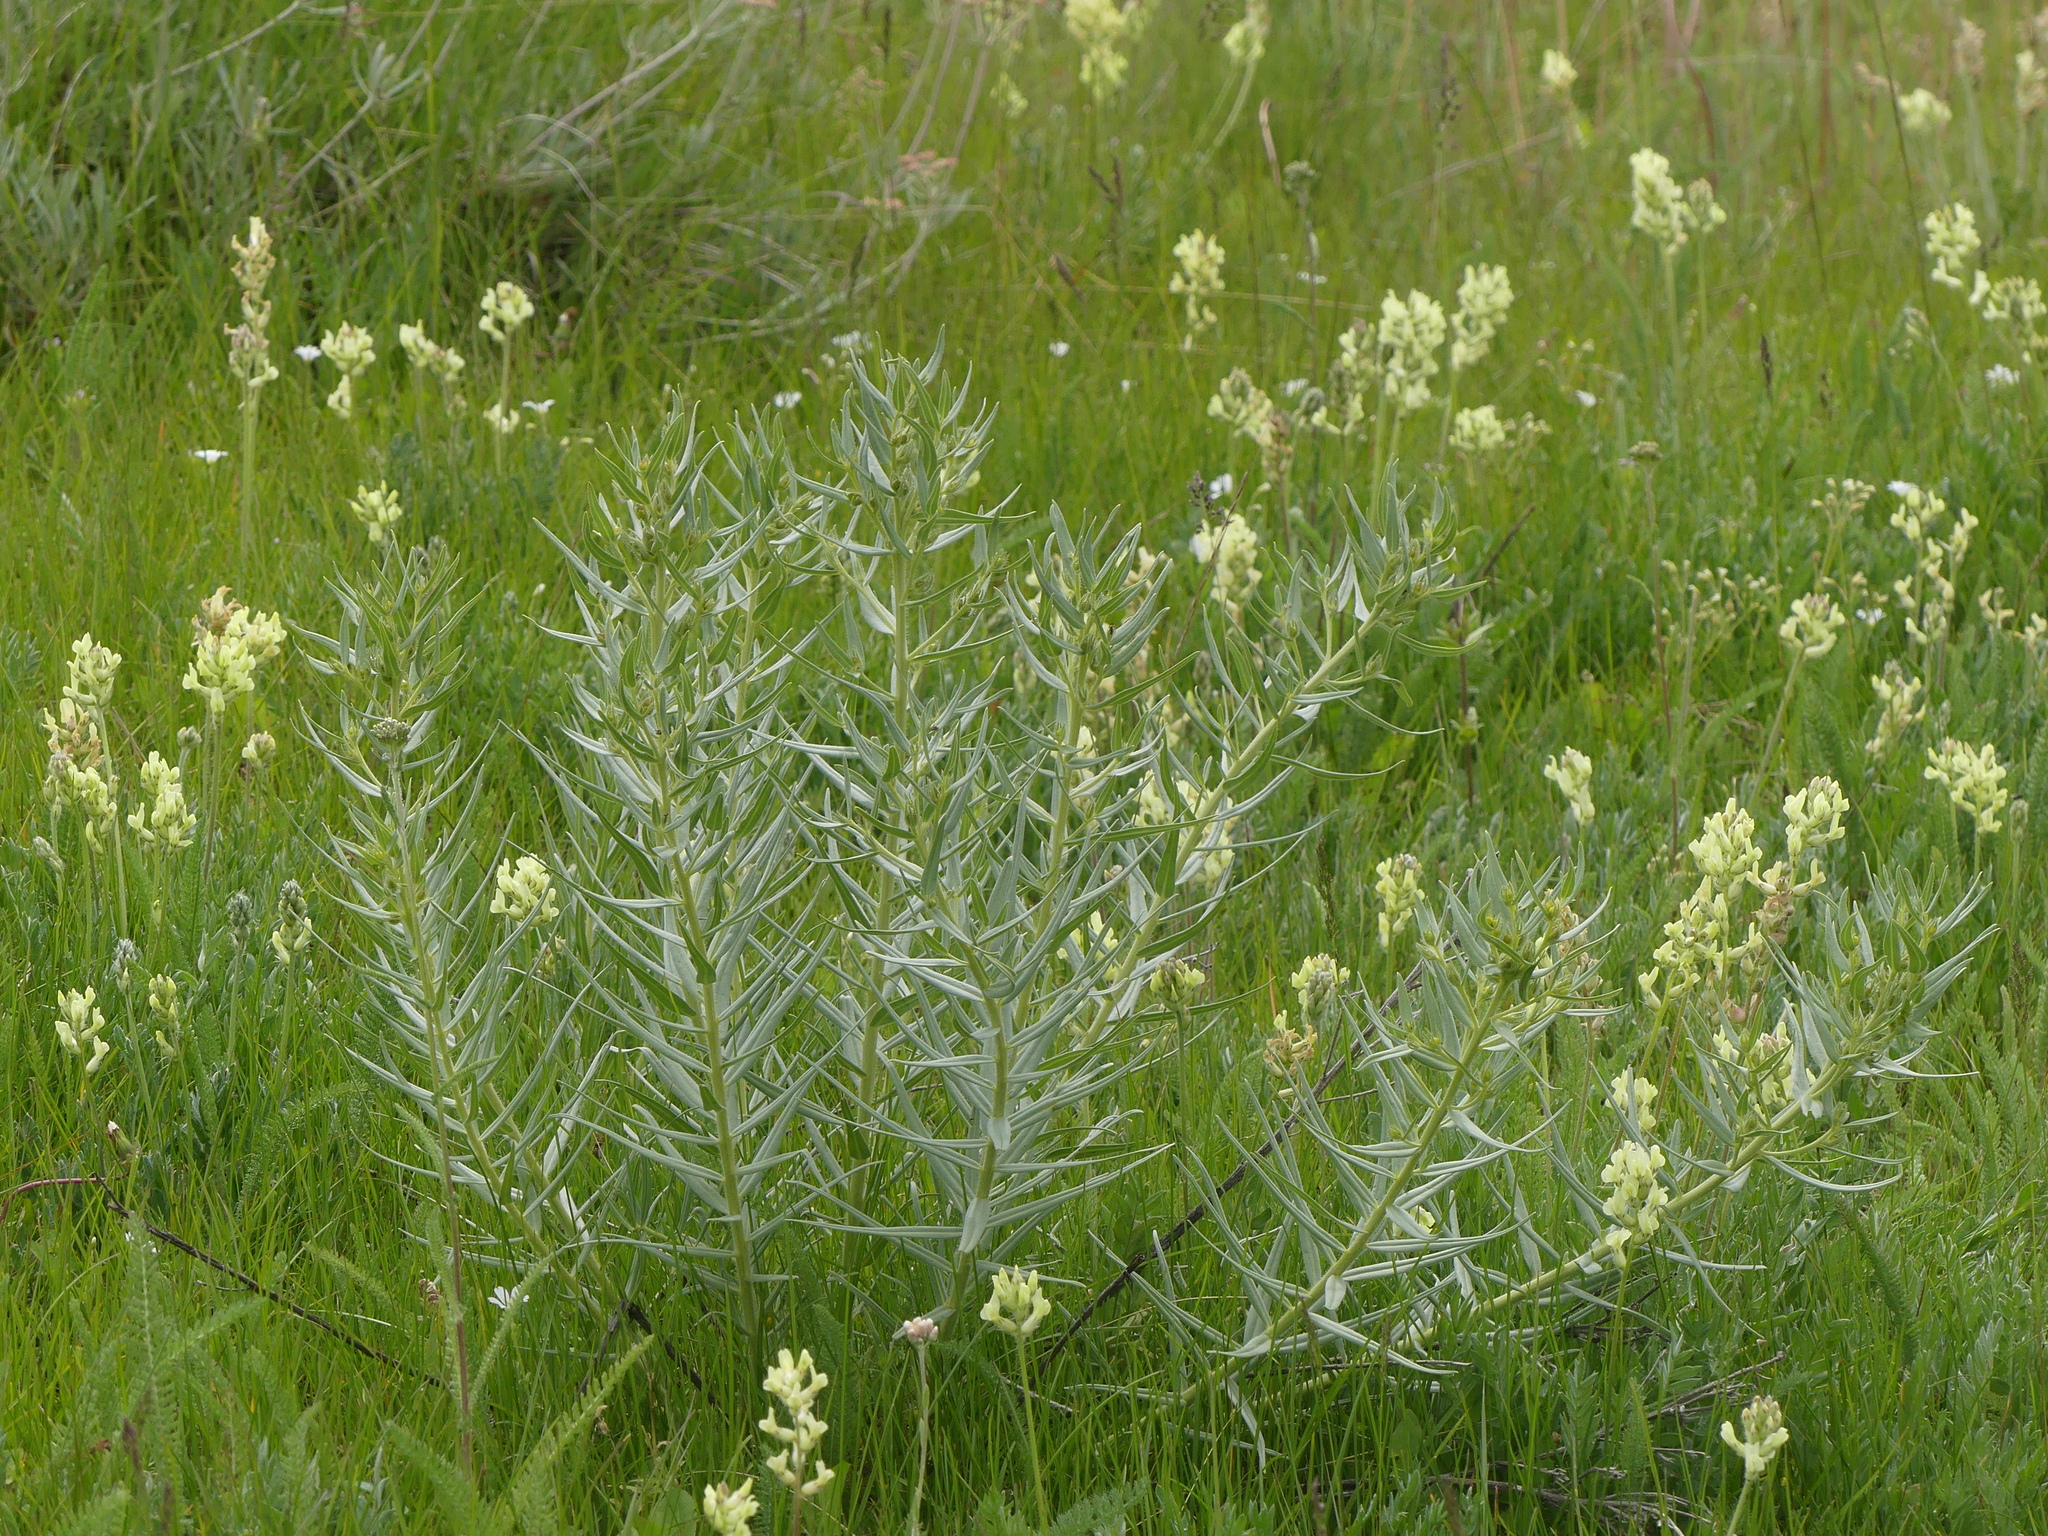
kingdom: Plantae
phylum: Tracheophyta
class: Magnoliopsida
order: Boraginales
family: Boraginaceae
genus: Lithospermum
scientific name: Lithospermum ruderale
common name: Western gromwell
